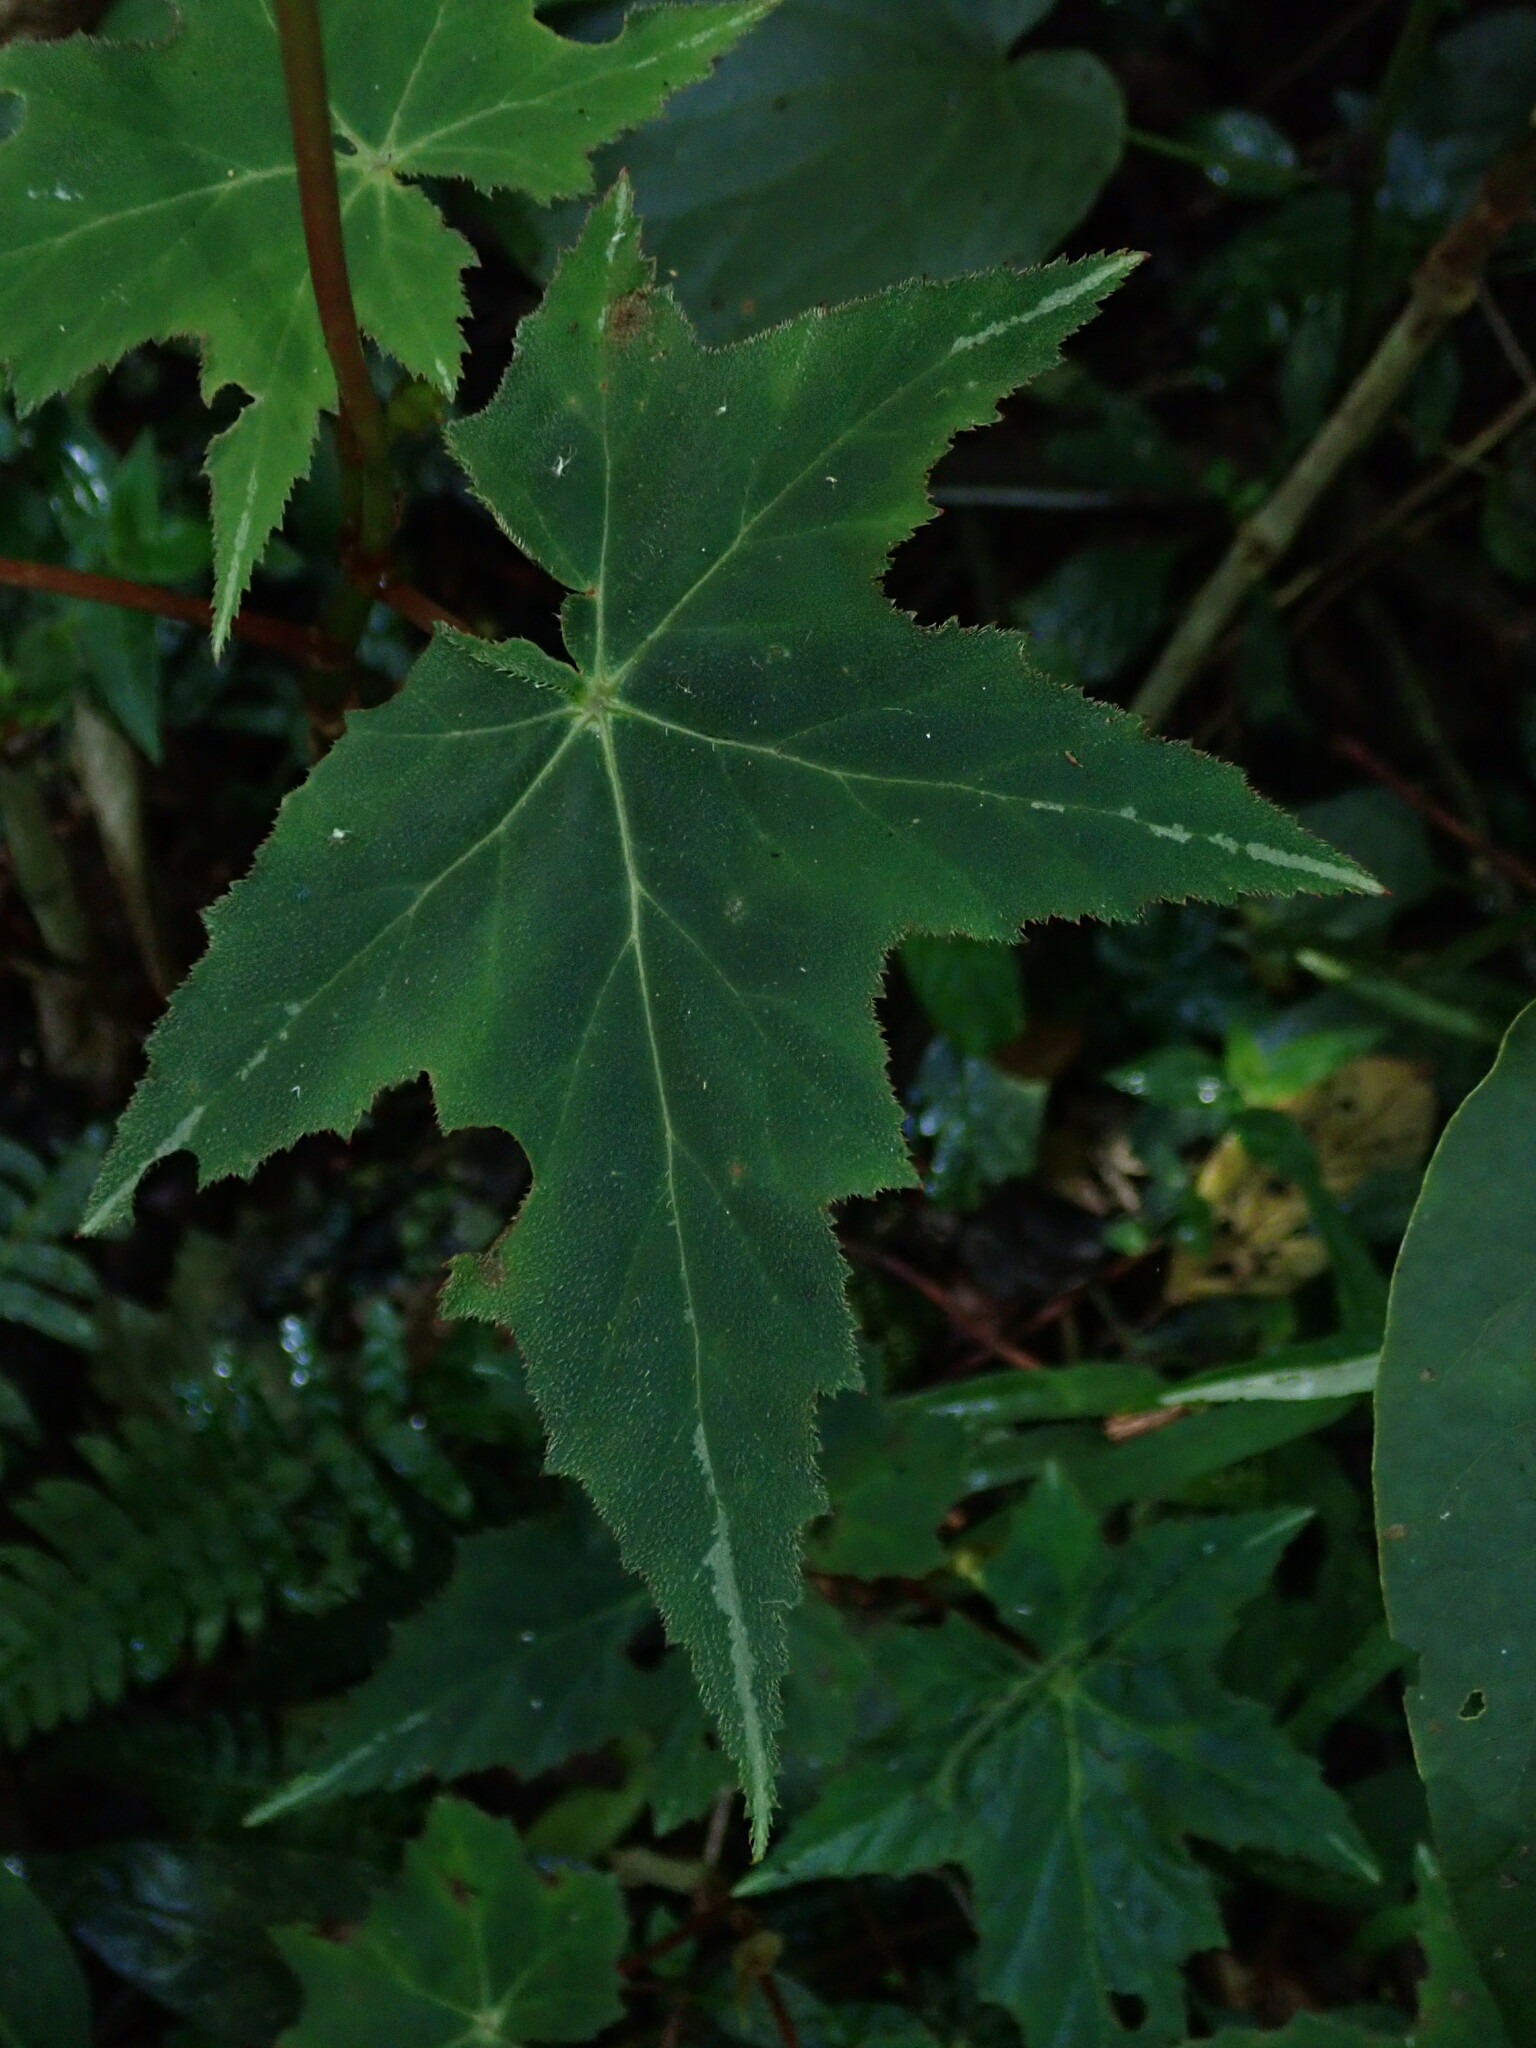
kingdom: Plantae
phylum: Tracheophyta
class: Magnoliopsida
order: Cucurbitales
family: Begoniaceae
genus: Begonia
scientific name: Begonia acerifolia
